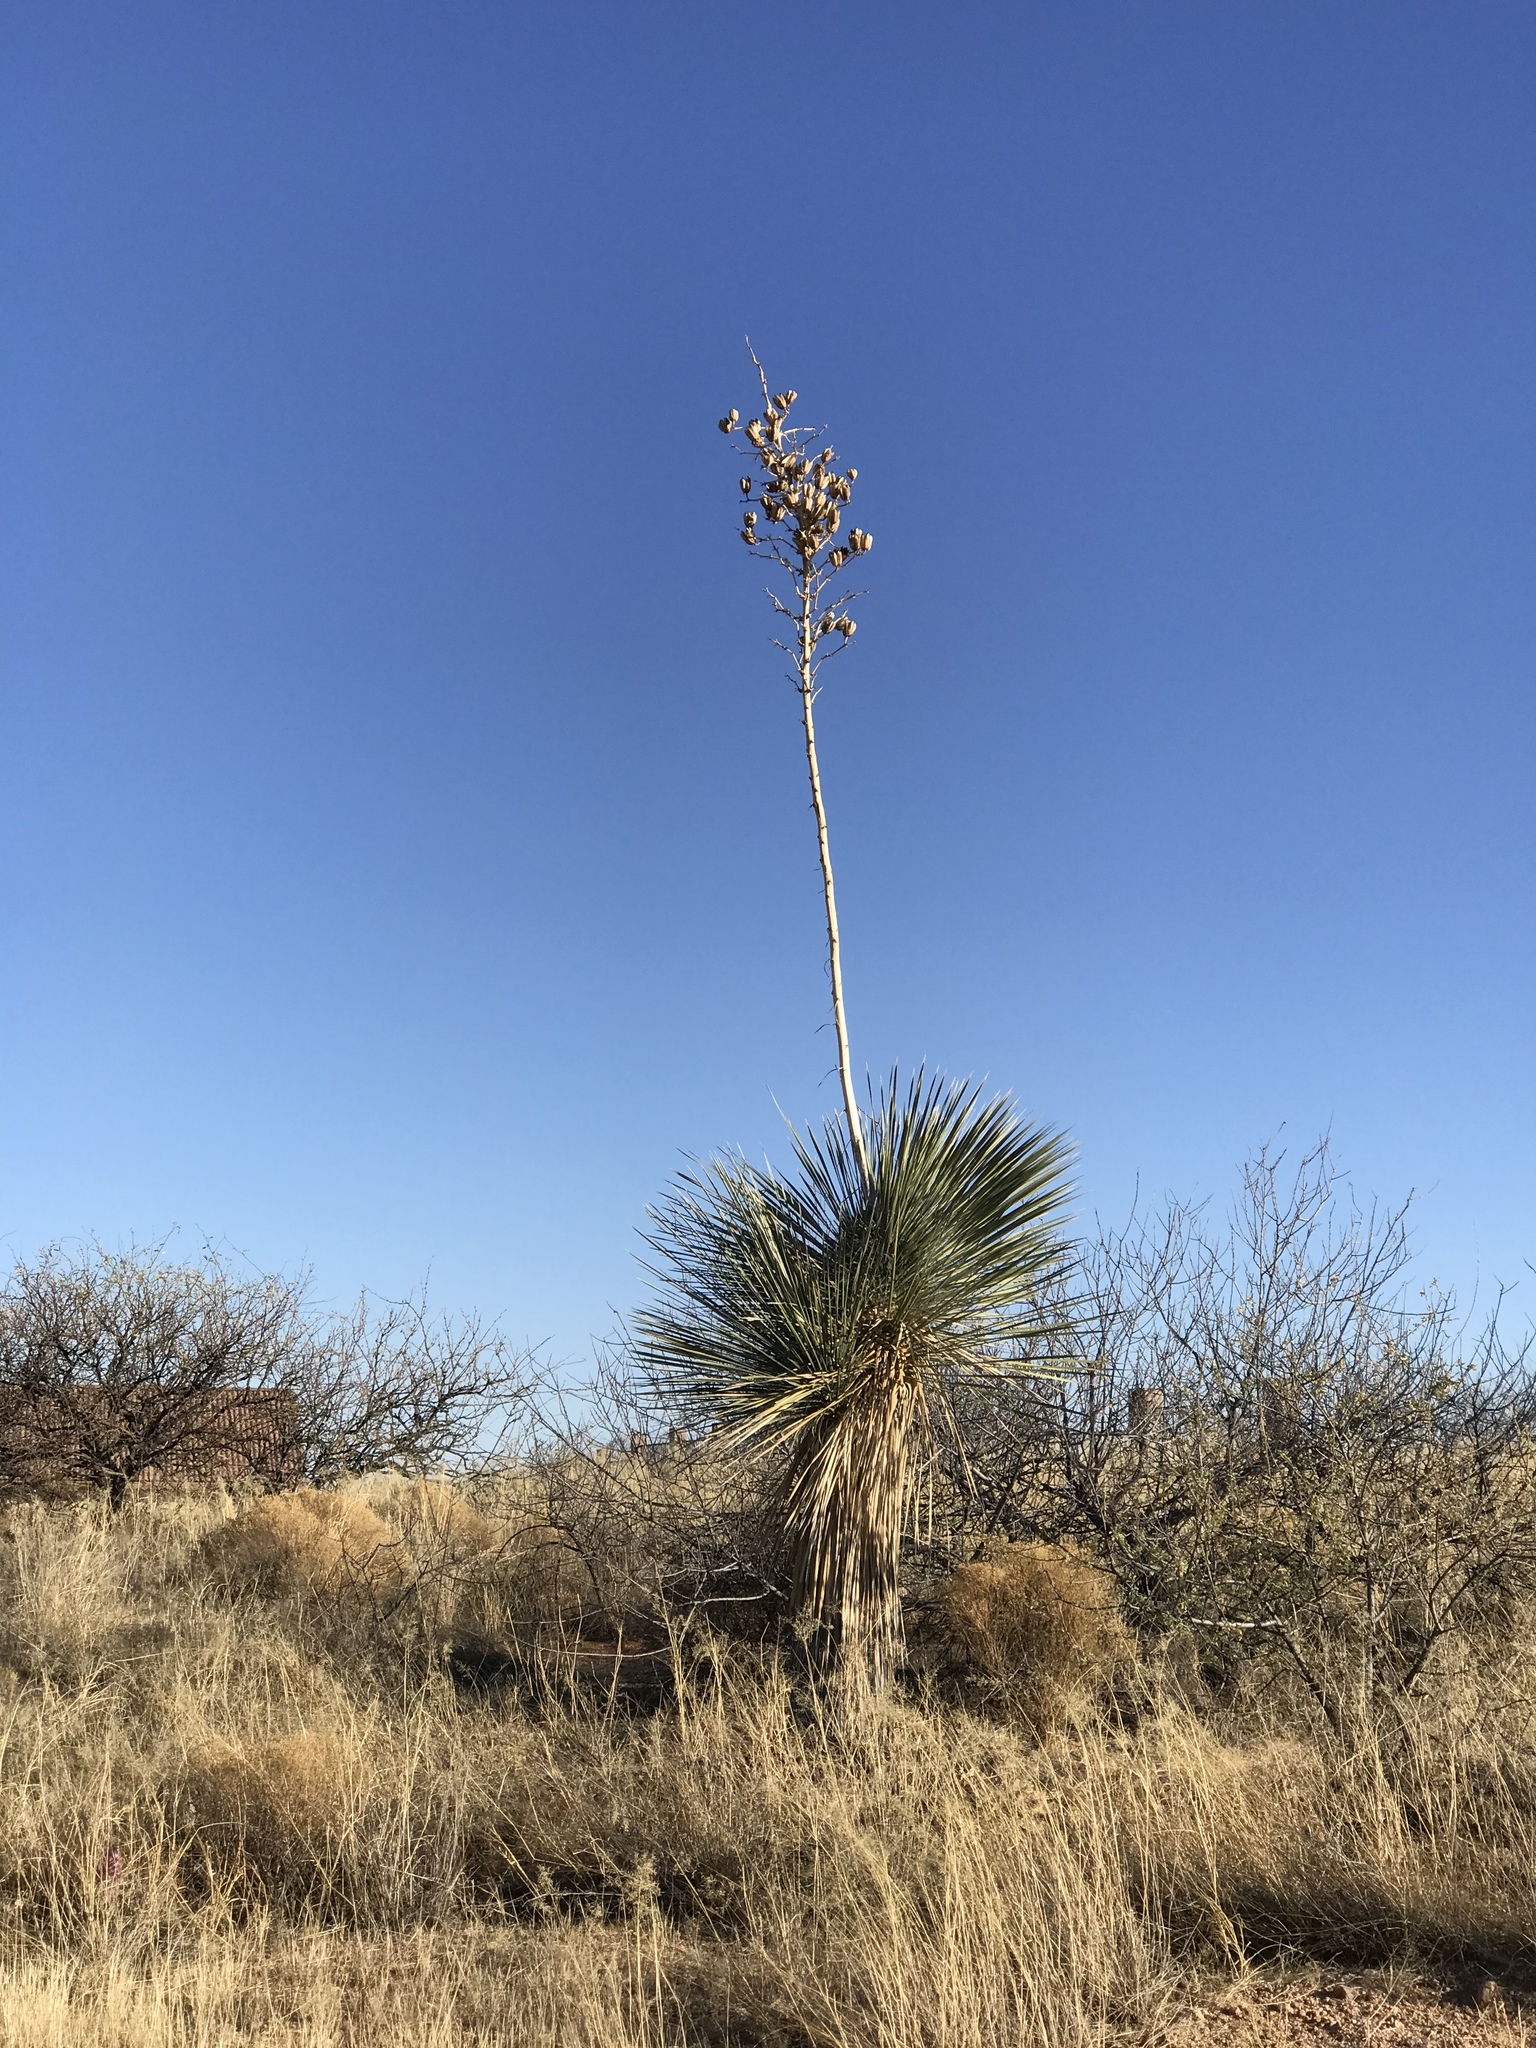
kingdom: Plantae
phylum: Tracheophyta
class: Liliopsida
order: Asparagales
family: Asparagaceae
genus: Yucca
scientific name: Yucca elata
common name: Palmella
